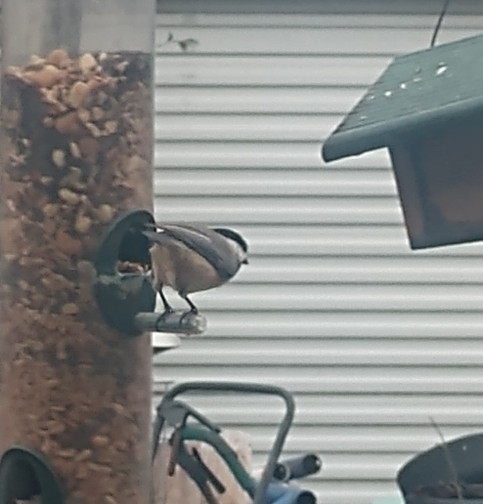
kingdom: Animalia
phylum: Chordata
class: Aves
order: Passeriformes
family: Paridae
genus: Poecile
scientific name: Poecile carolinensis
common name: Carolina chickadee
